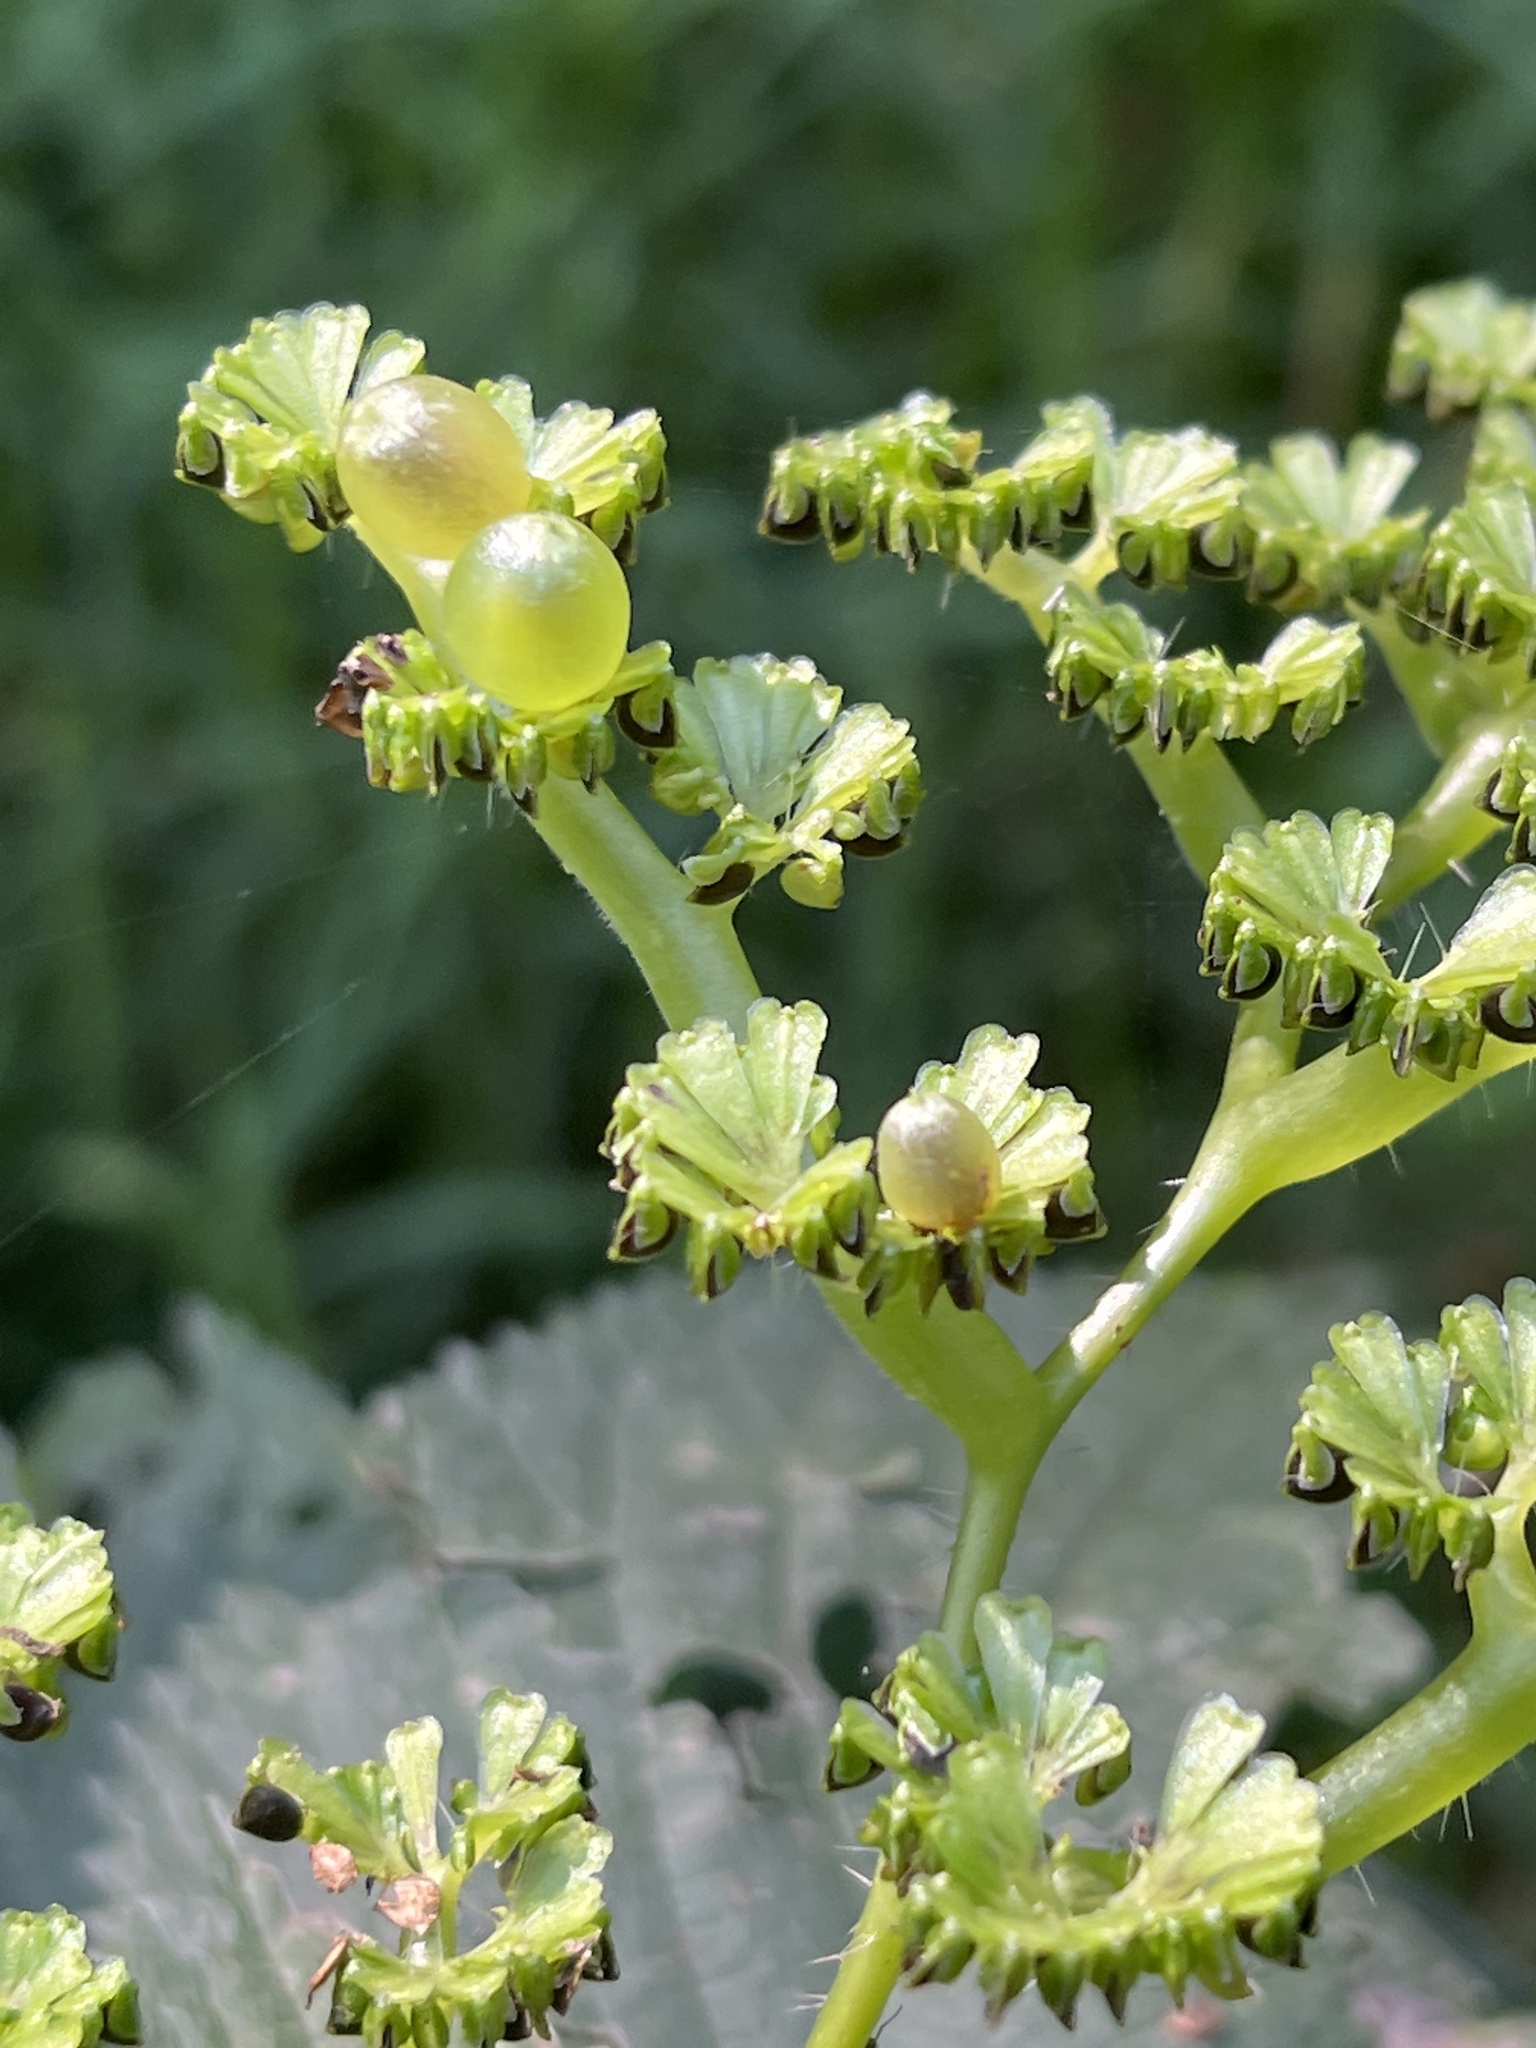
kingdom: Plantae
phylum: Tracheophyta
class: Magnoliopsida
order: Rosales
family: Urticaceae
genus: Laportea
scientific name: Laportea canadensis
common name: Canada nettle
